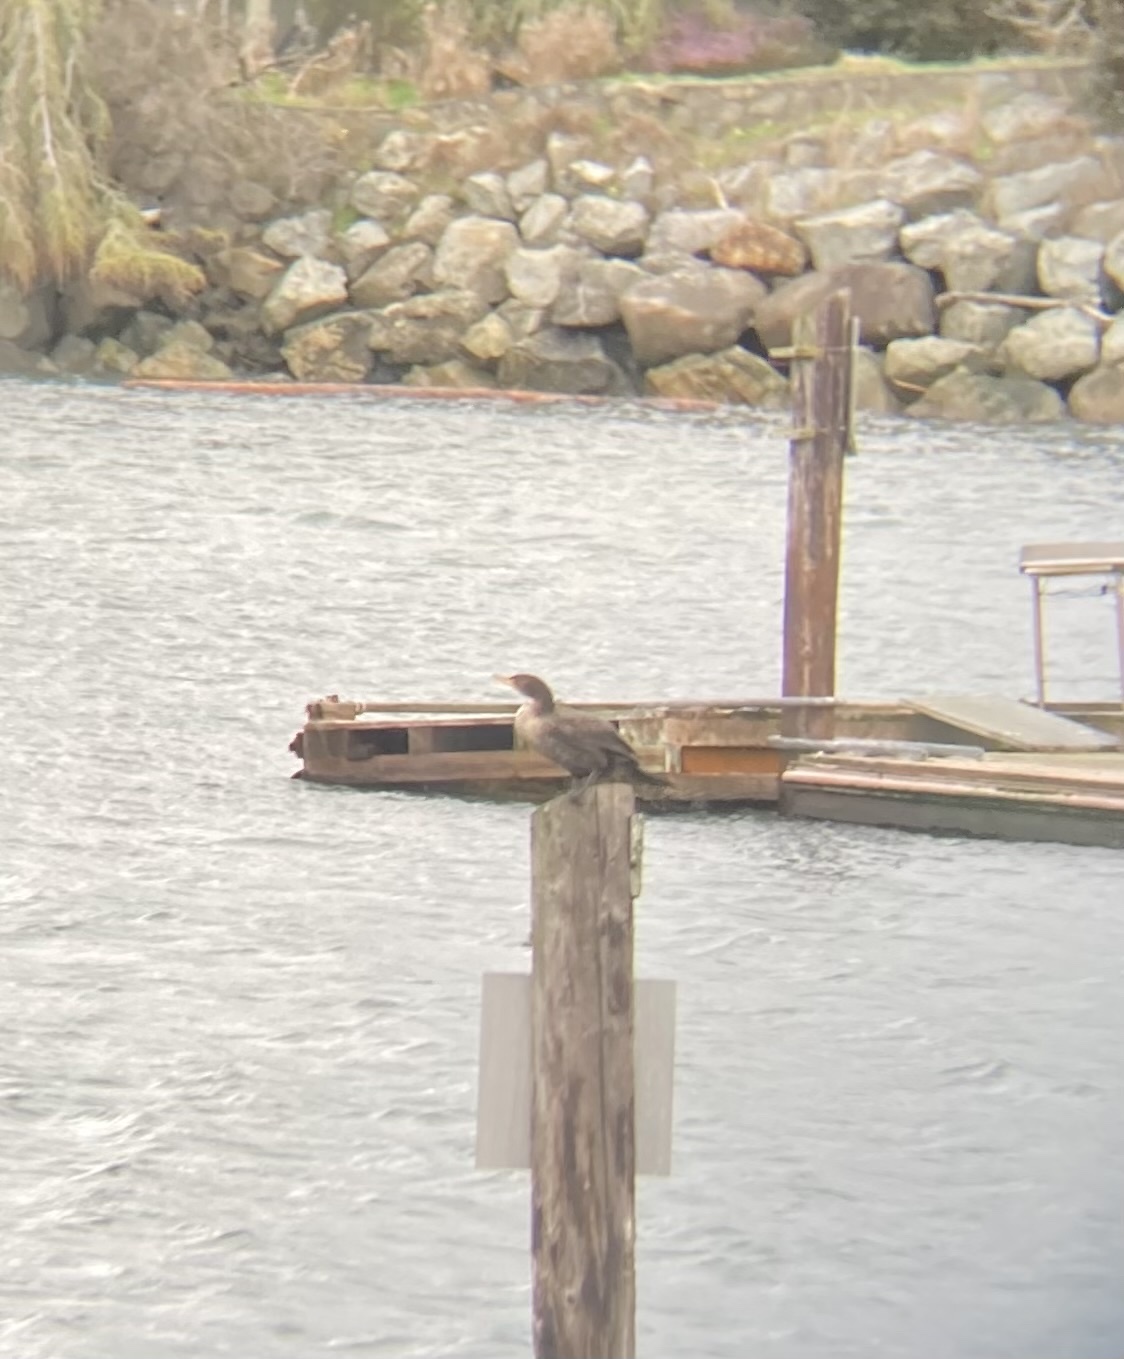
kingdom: Animalia
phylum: Chordata
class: Aves
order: Suliformes
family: Phalacrocoracidae
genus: Phalacrocorax
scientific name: Phalacrocorax auritus
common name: Double-crested cormorant
